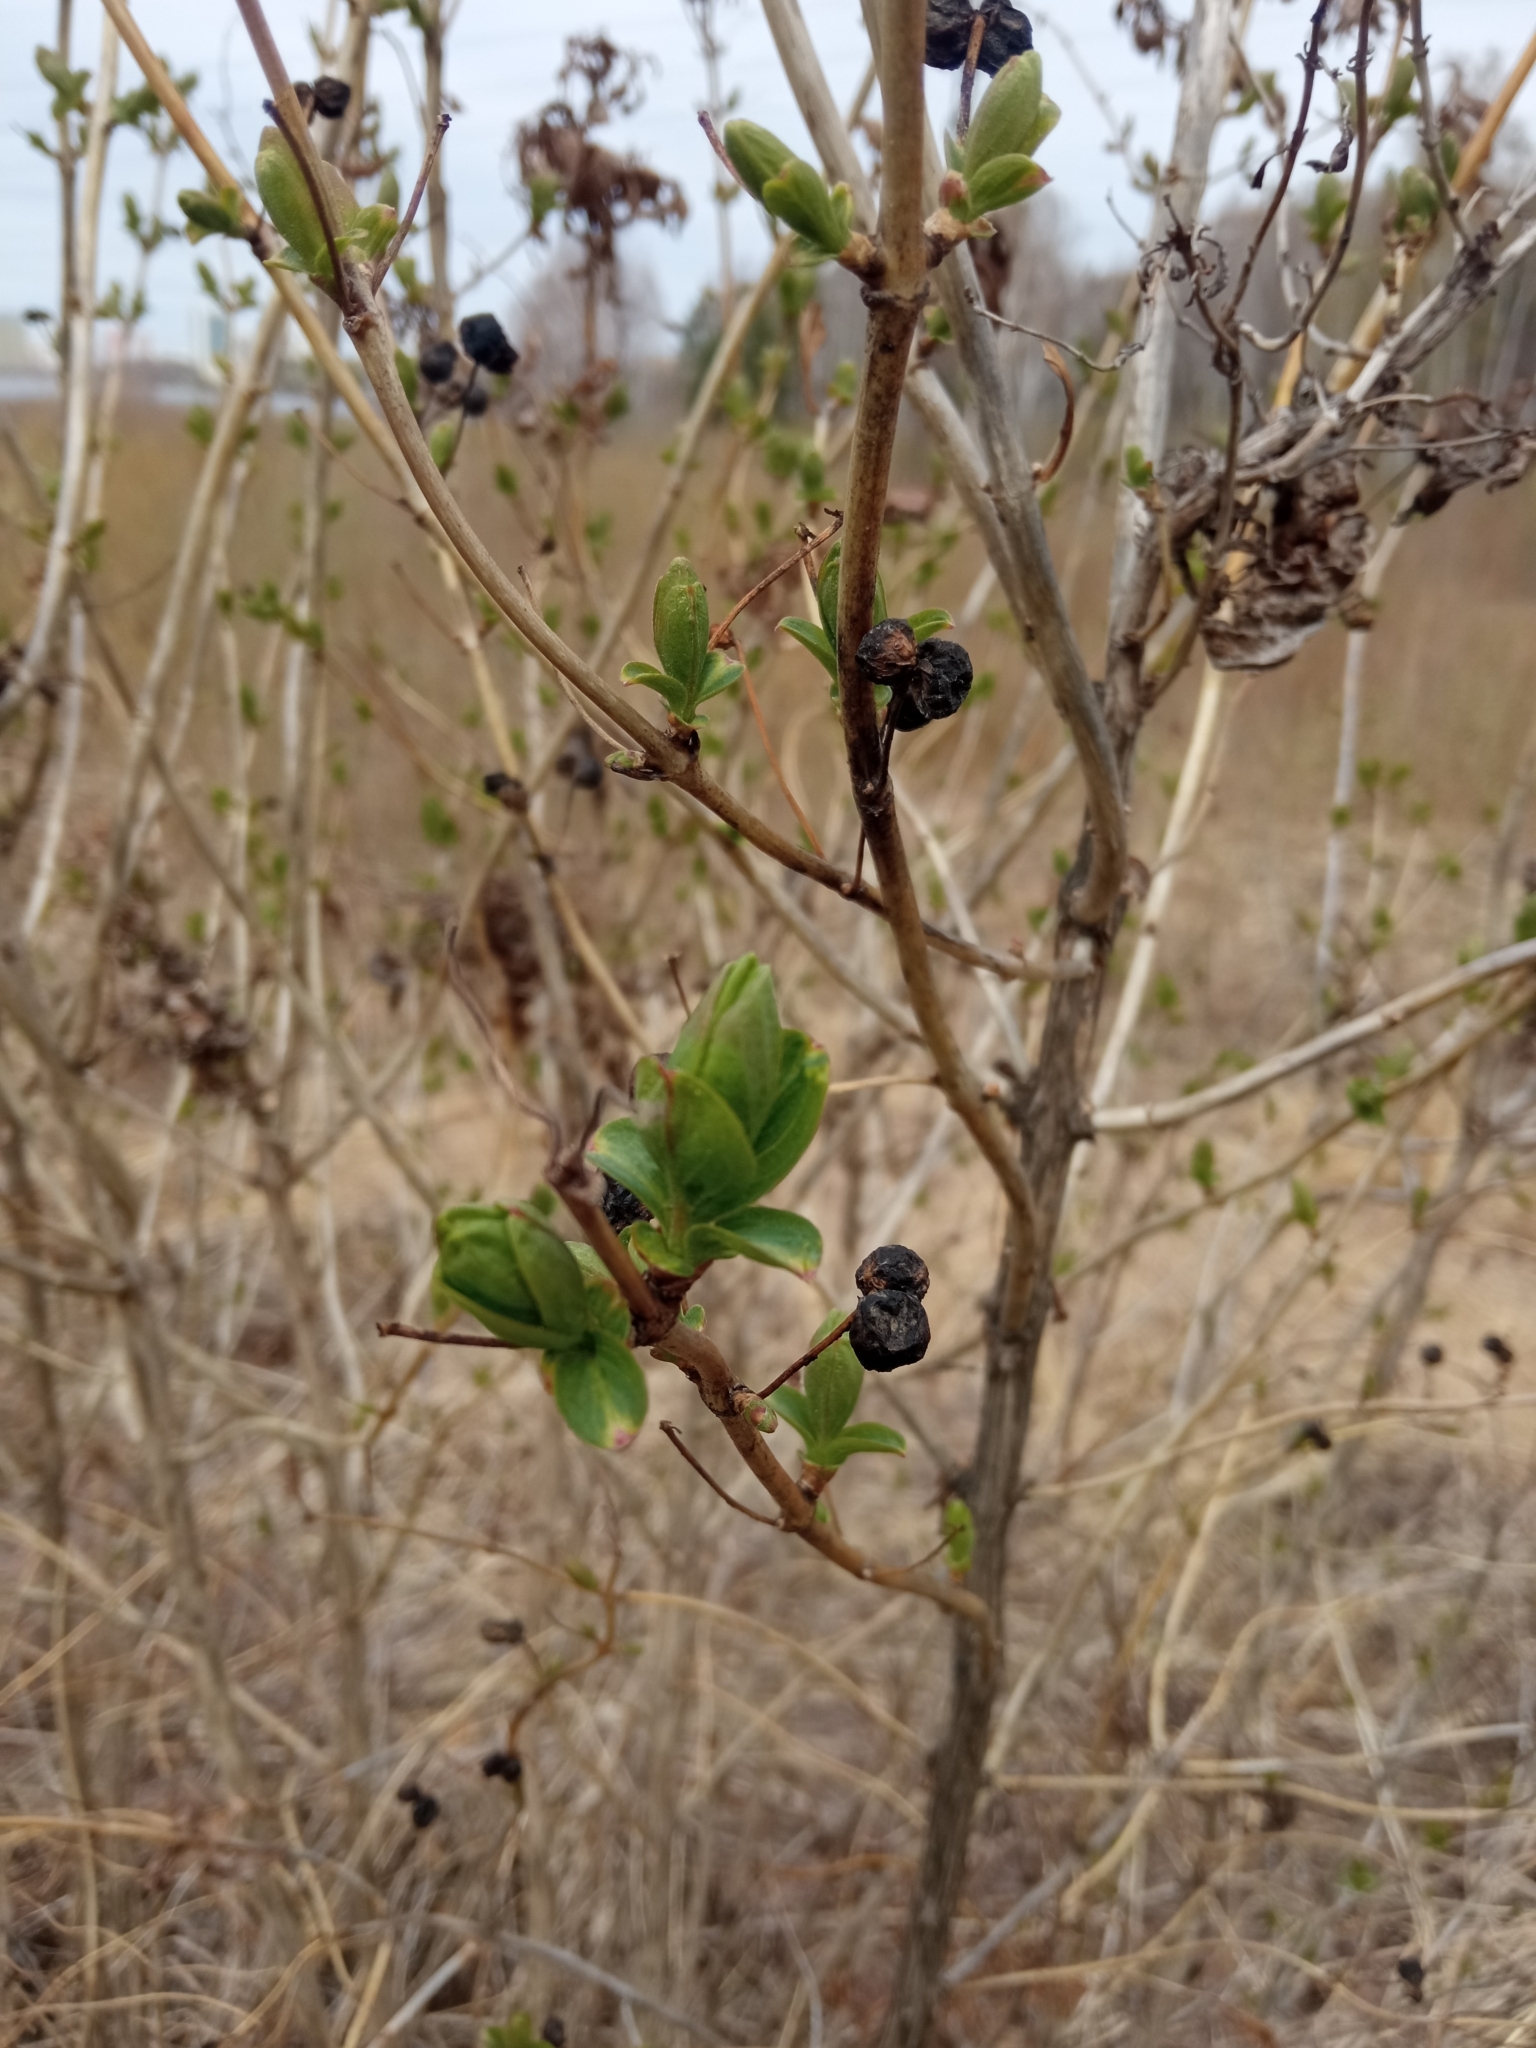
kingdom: Plantae
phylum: Tracheophyta
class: Magnoliopsida
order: Dipsacales
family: Caprifoliaceae
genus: Lonicera
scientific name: Lonicera tatarica
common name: Tatarian honeysuckle
